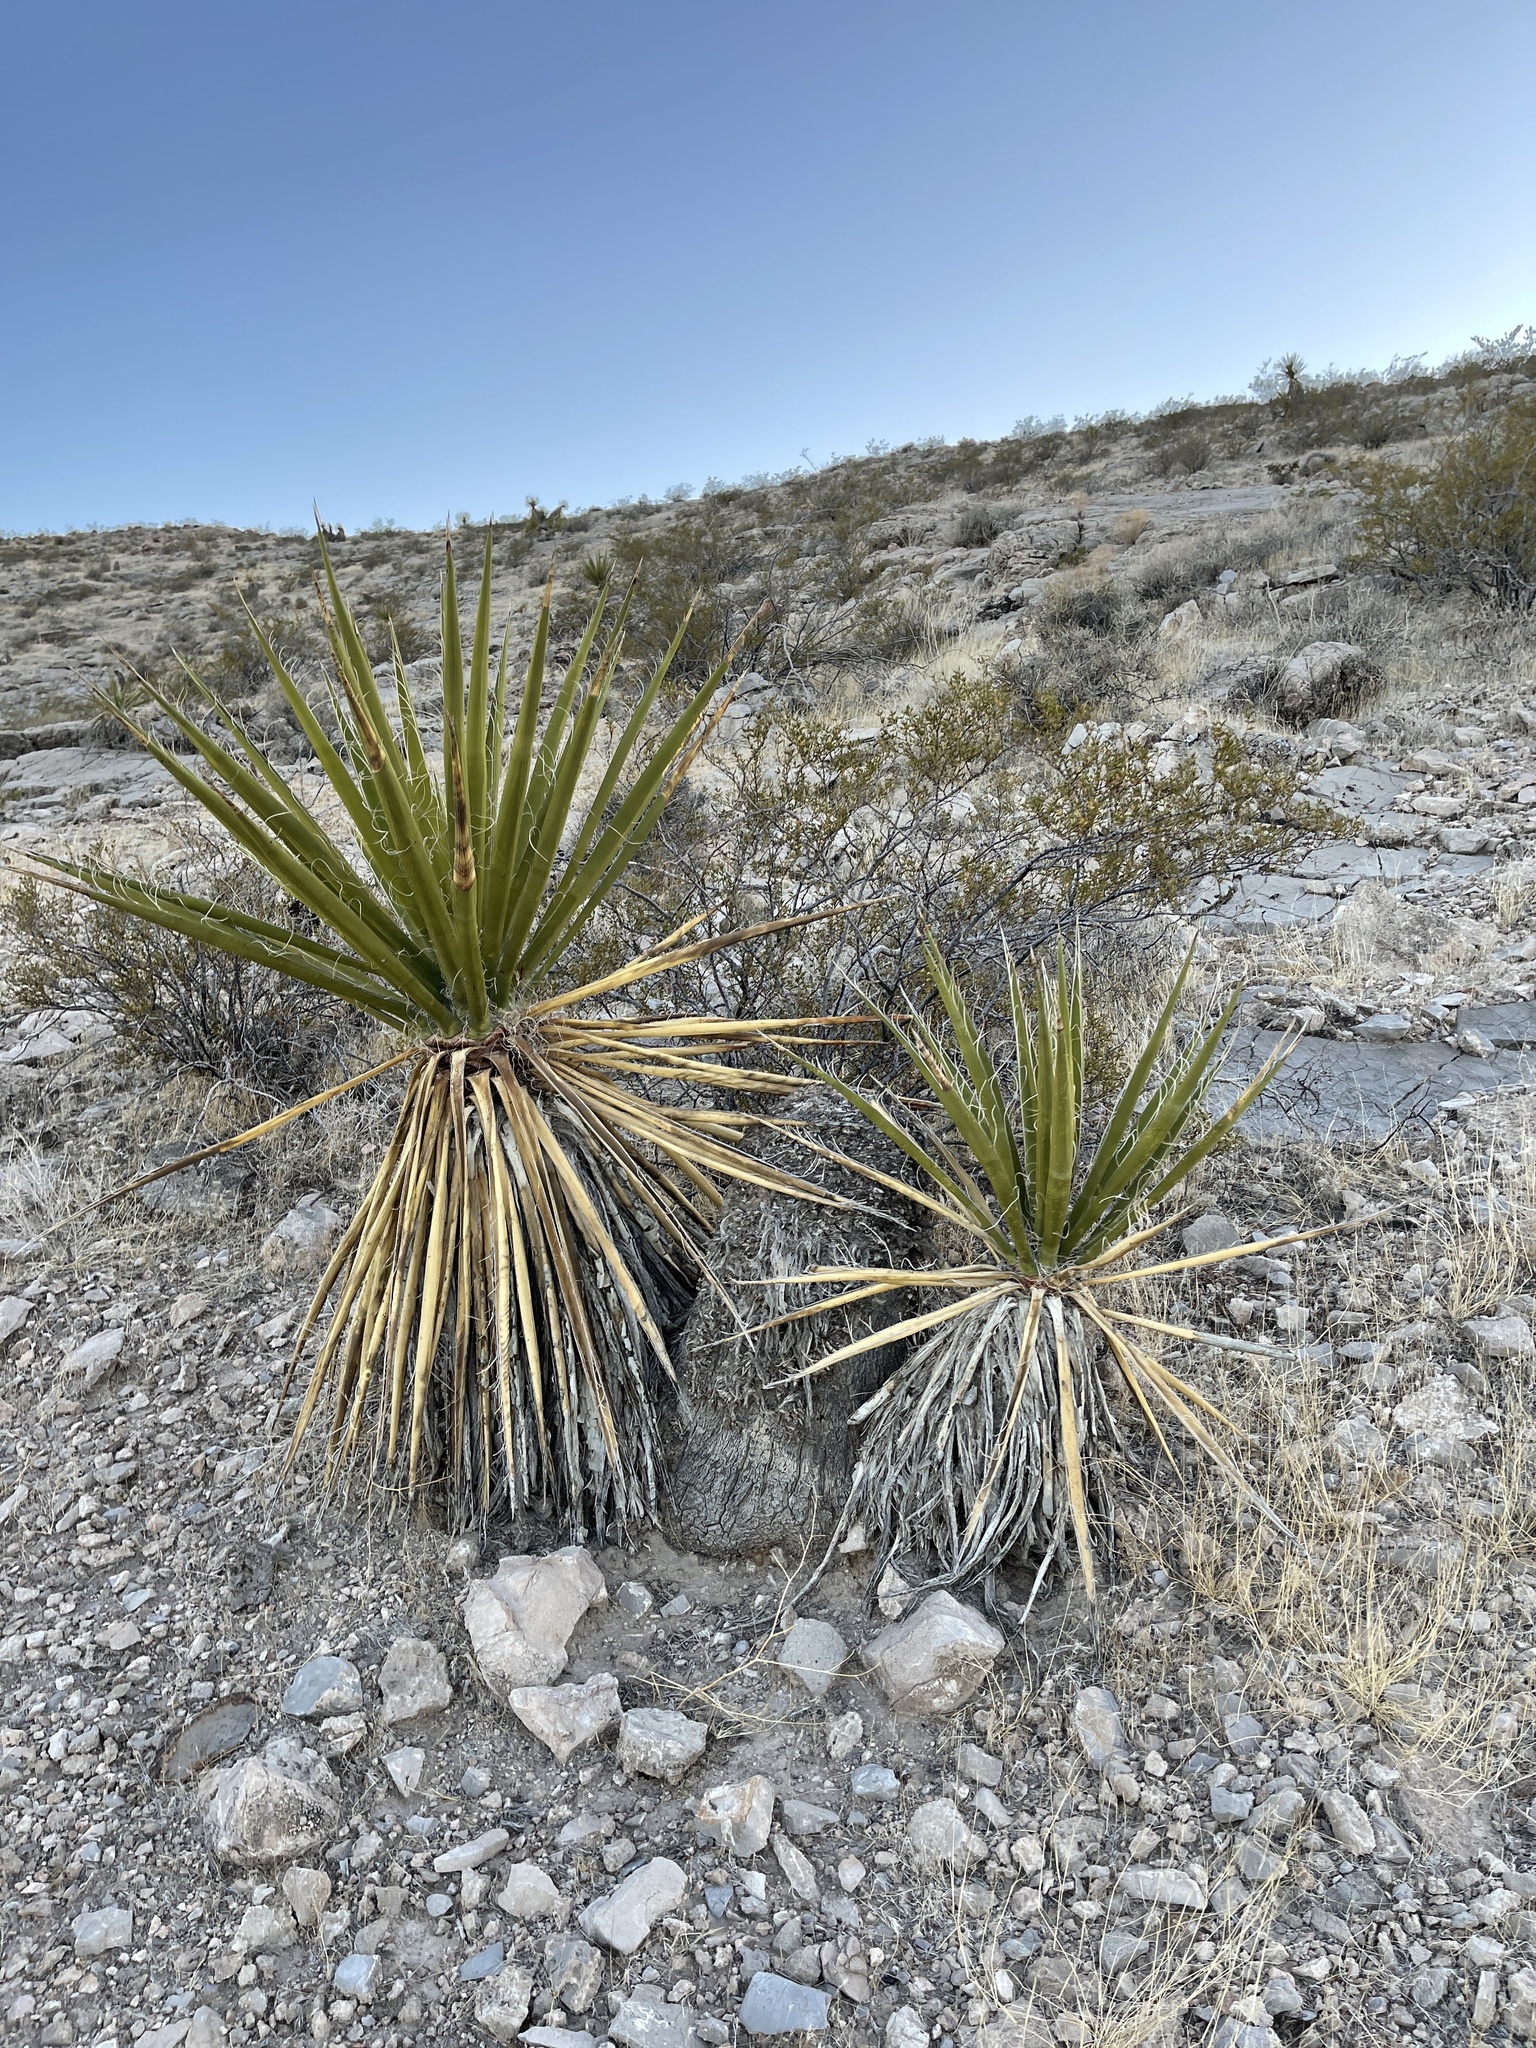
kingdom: Plantae
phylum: Tracheophyta
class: Liliopsida
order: Asparagales
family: Asparagaceae
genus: Yucca
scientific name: Yucca schidigera
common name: Mojave yucca
